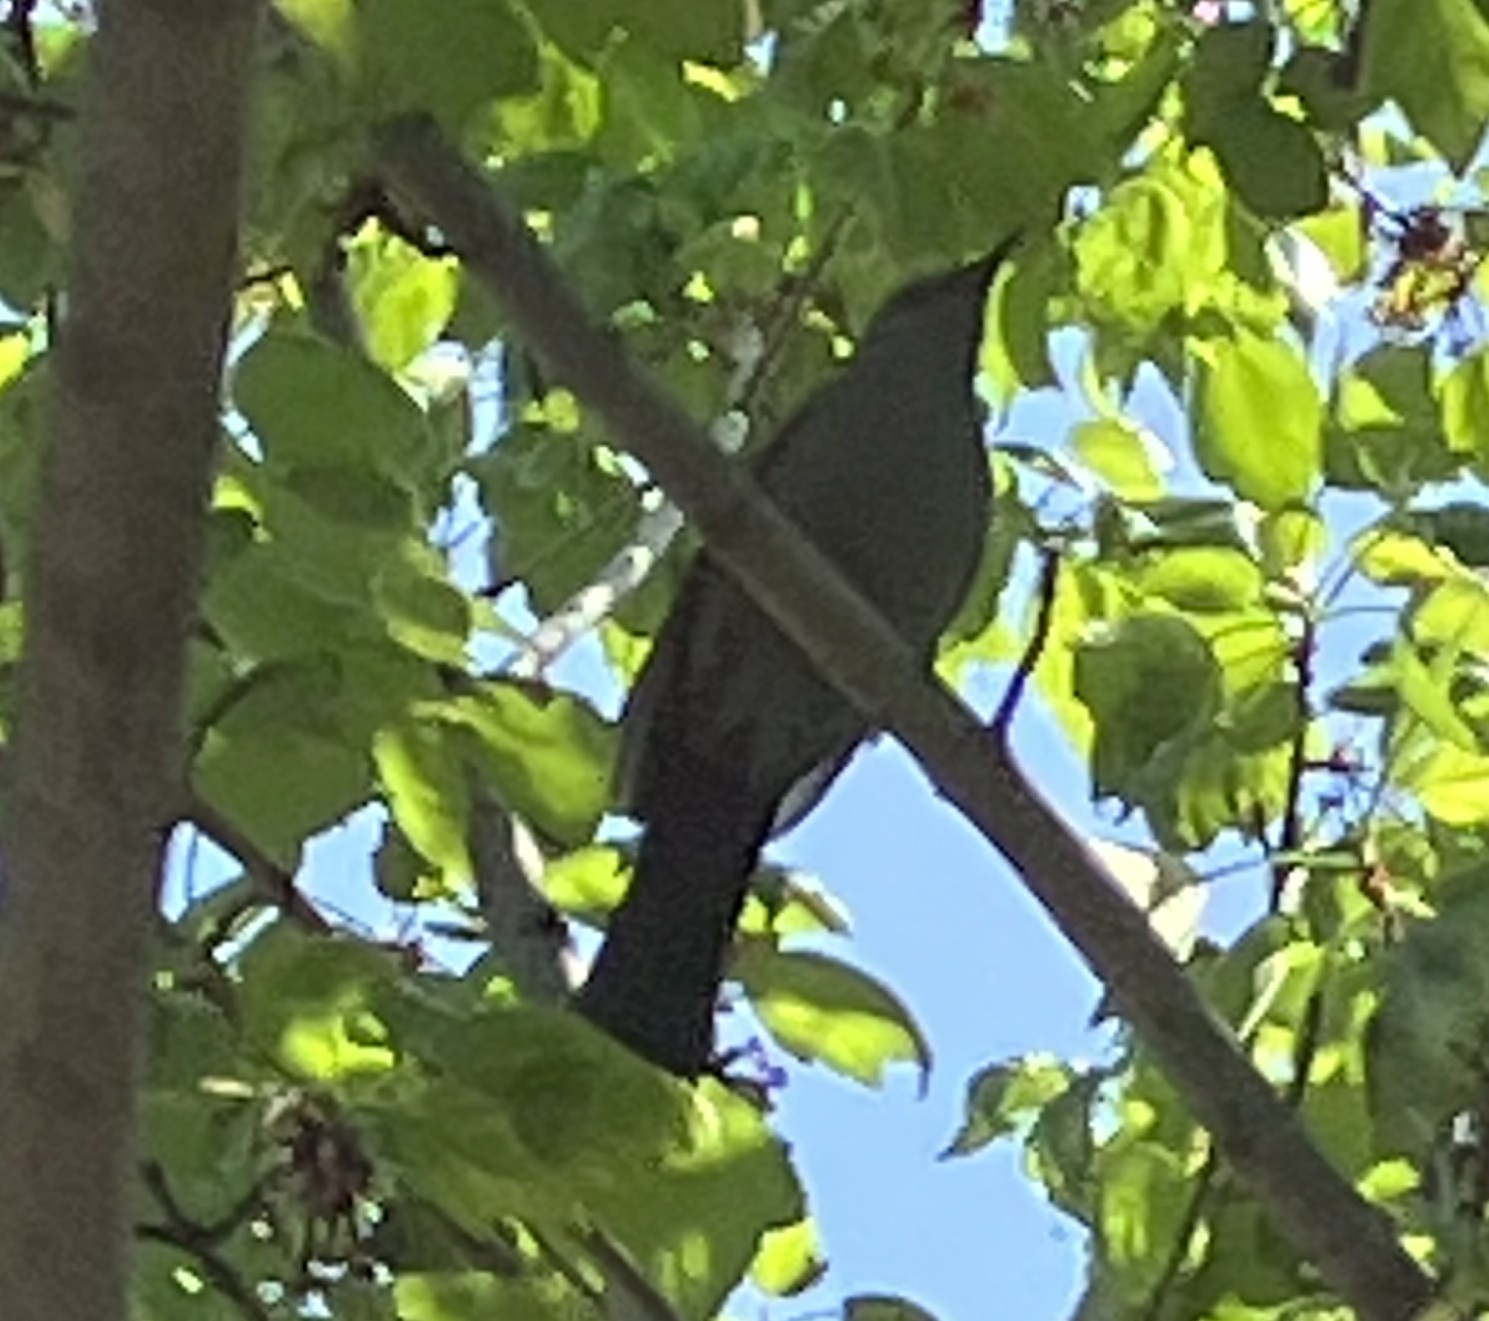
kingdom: Animalia
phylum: Chordata
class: Aves
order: Passeriformes
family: Mimidae
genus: Dumetella
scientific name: Dumetella carolinensis
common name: Gray catbird
